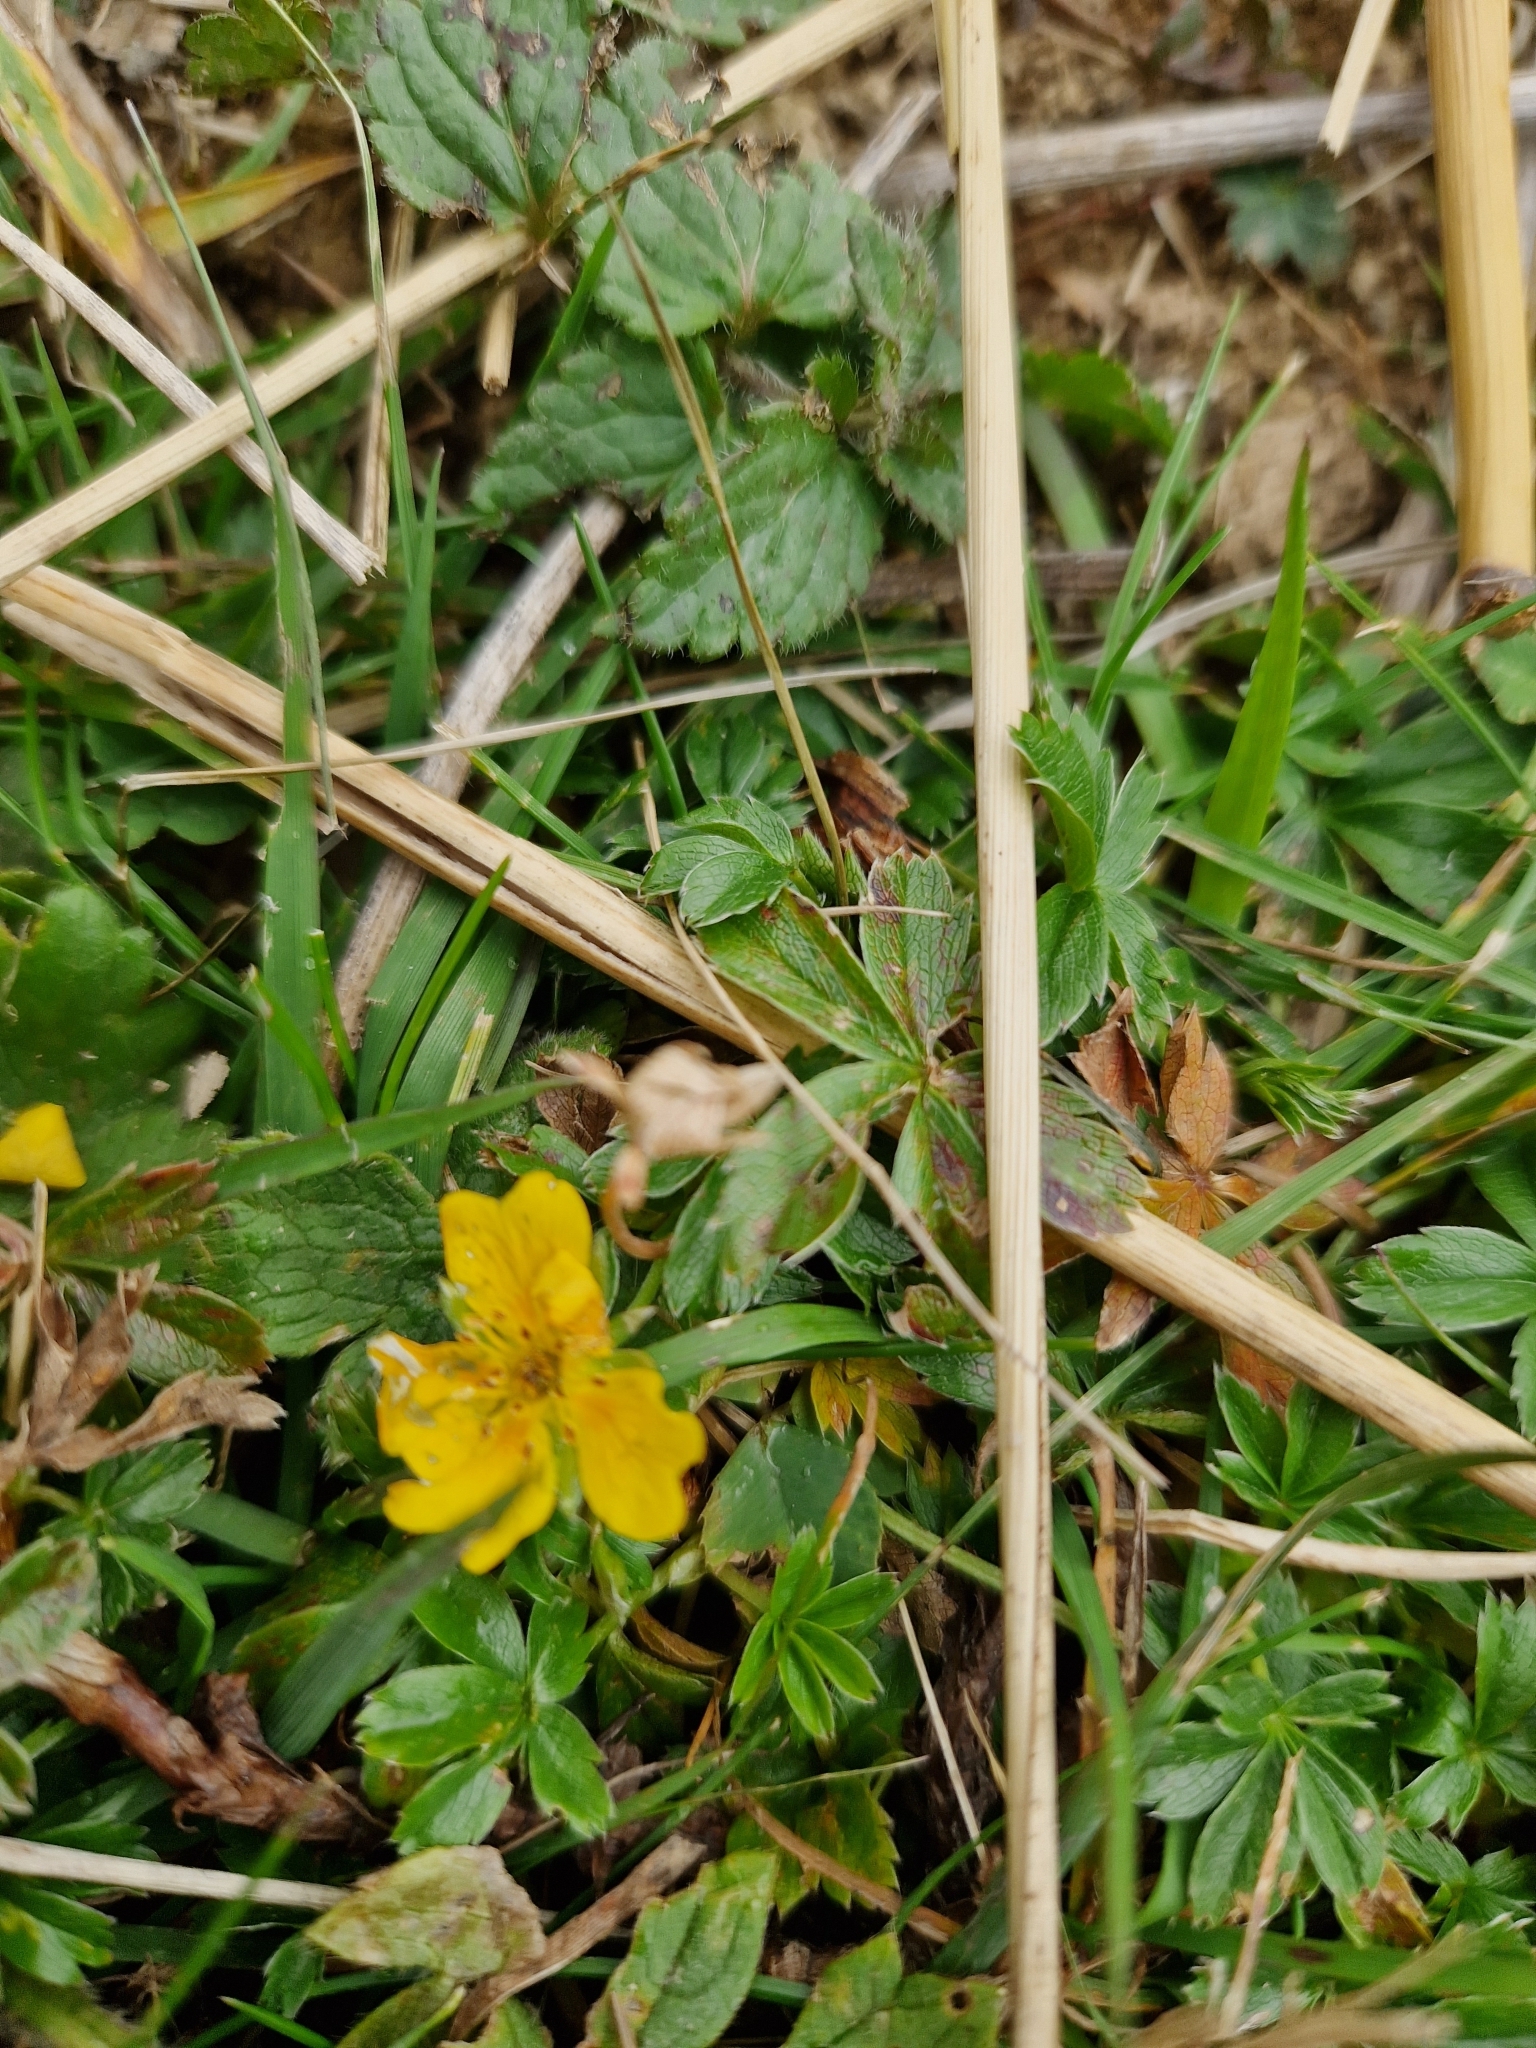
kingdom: Plantae
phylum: Tracheophyta
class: Magnoliopsida
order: Rosales
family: Rosaceae
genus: Potentilla
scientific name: Potentilla aurea
